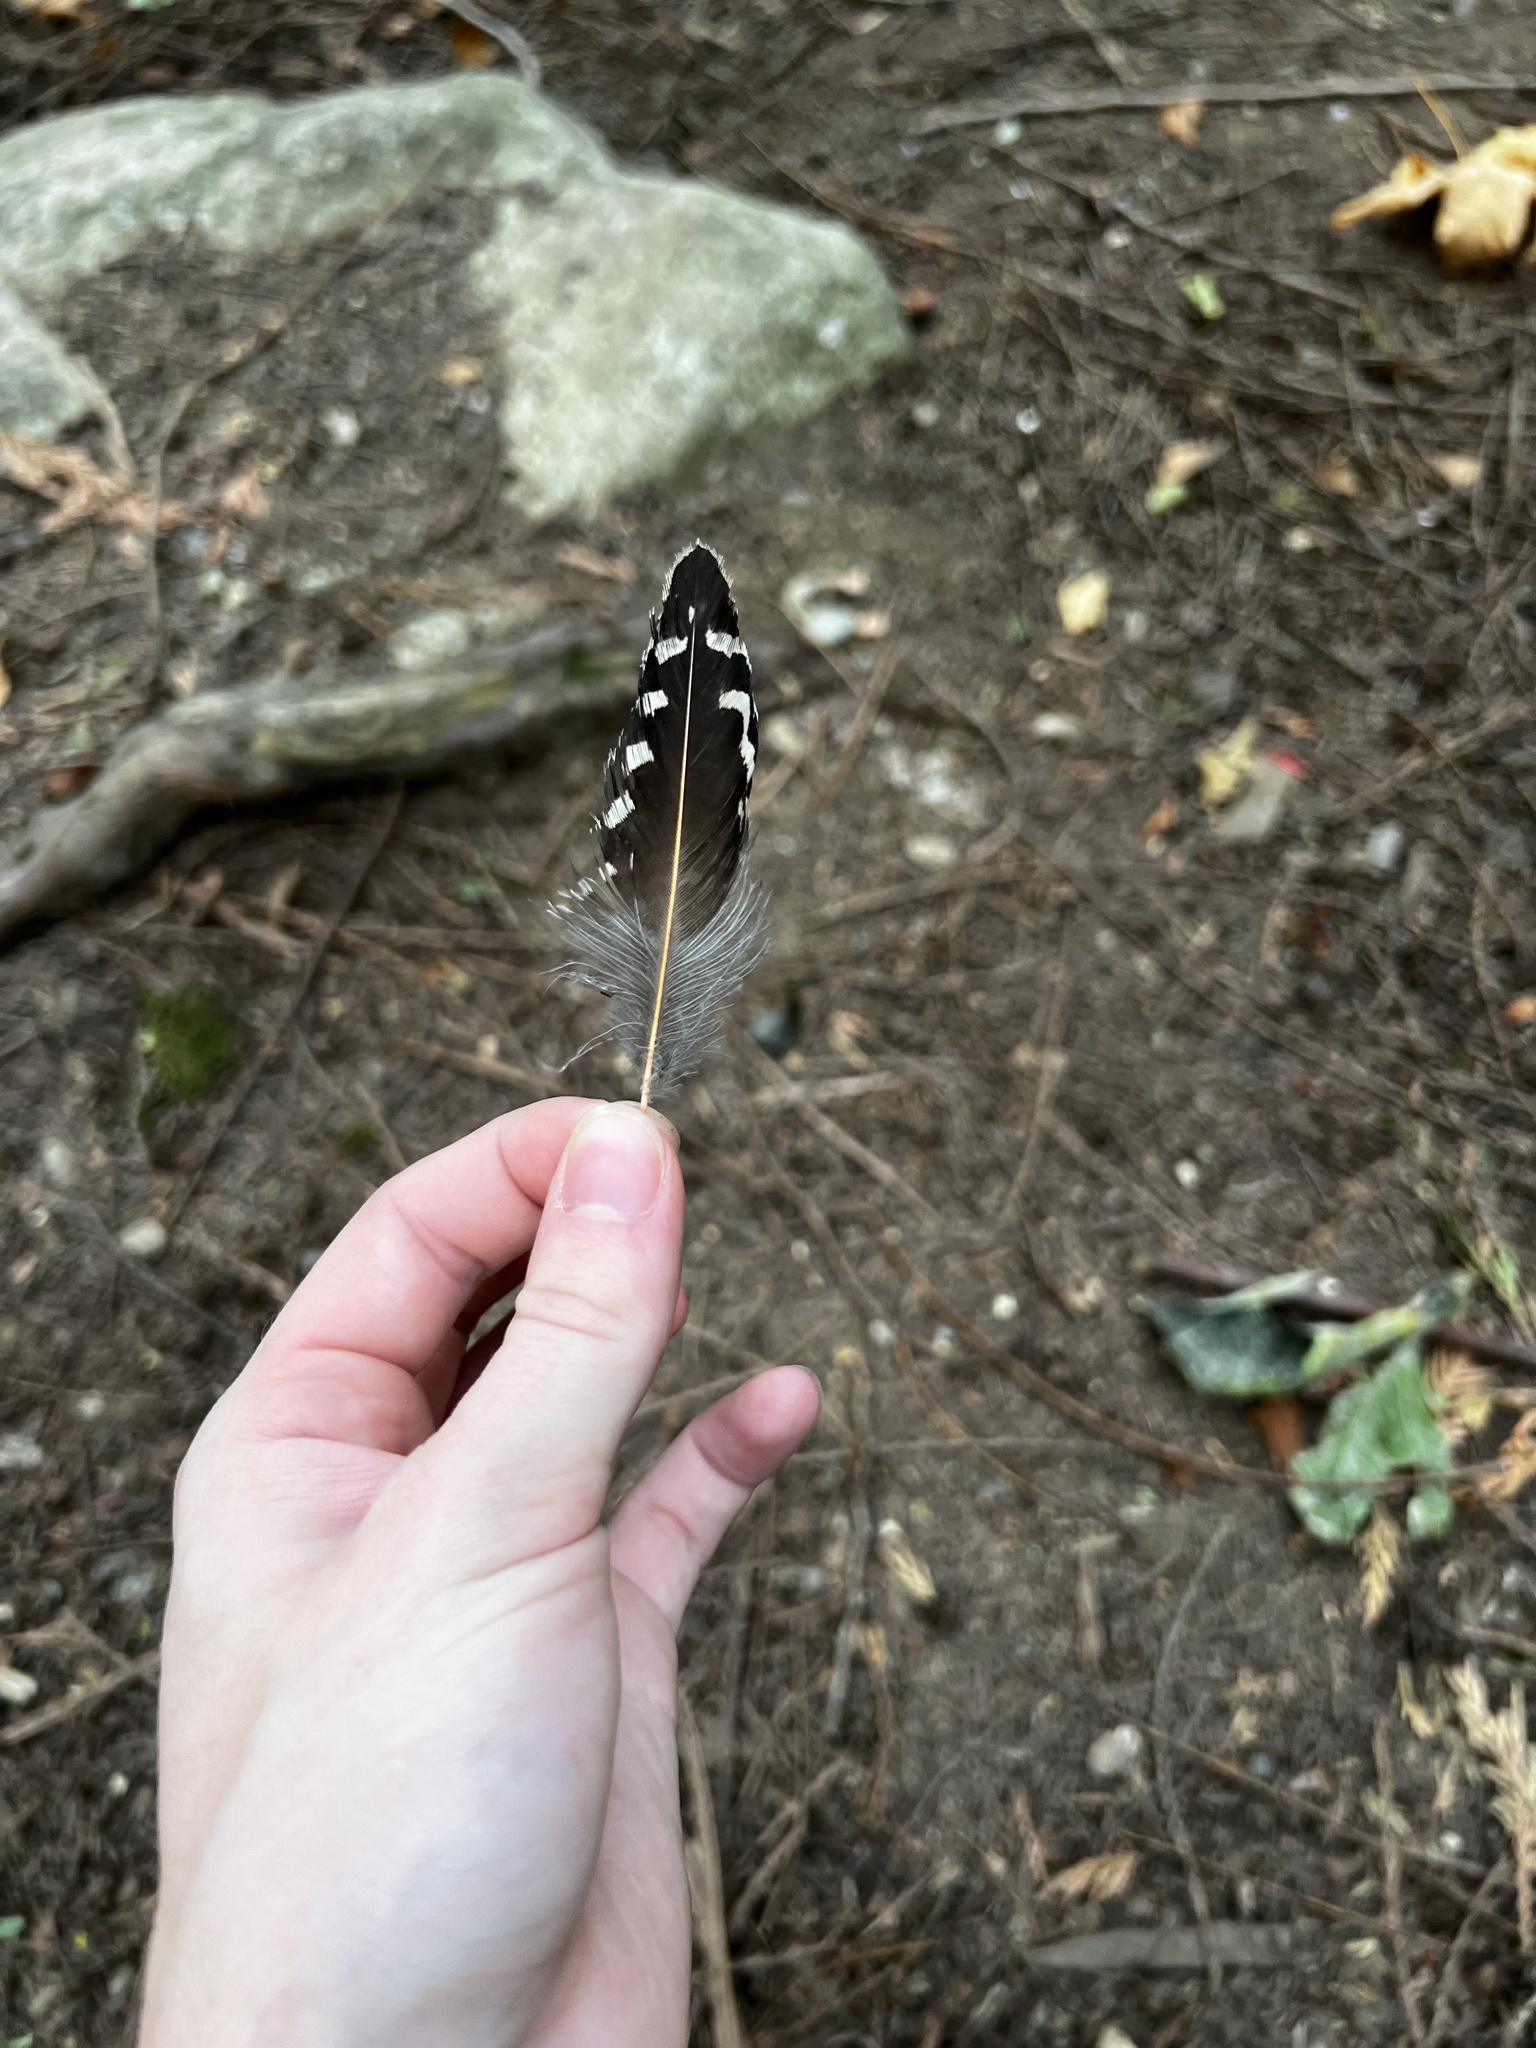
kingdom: Animalia
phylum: Chordata
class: Aves
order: Piciformes
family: Picidae
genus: Colaptes
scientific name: Colaptes auratus
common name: Northern flicker
